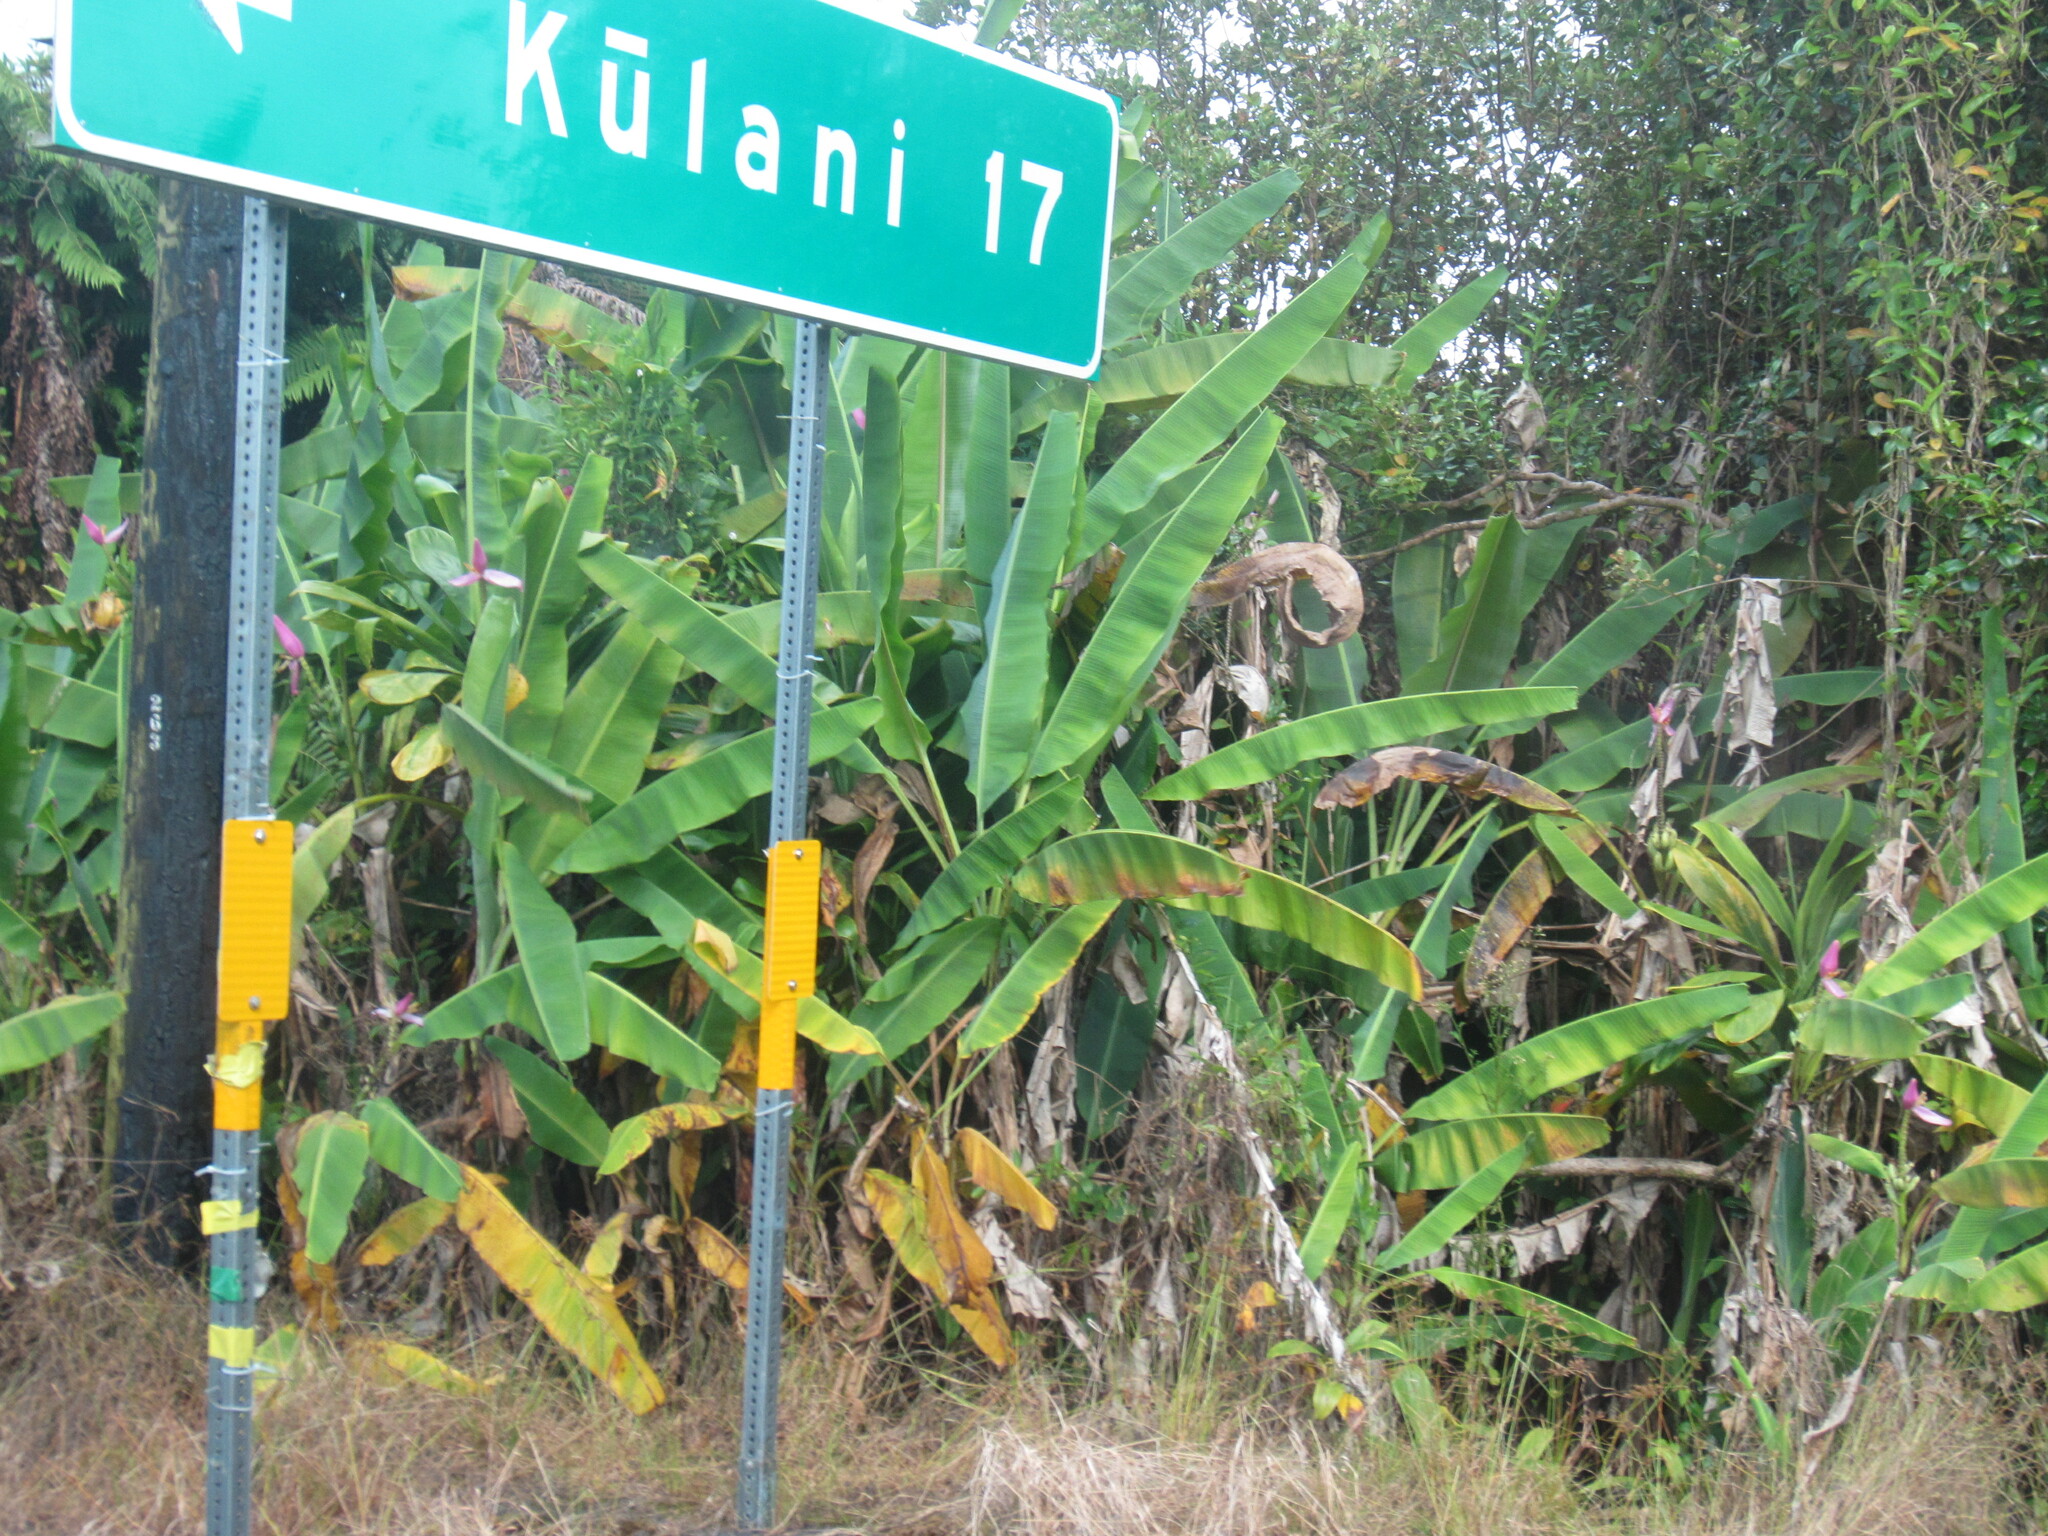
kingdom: Plantae
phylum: Tracheophyta
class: Liliopsida
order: Zingiberales
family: Musaceae
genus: Musa
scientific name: Musa ornata
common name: Flowering banana
